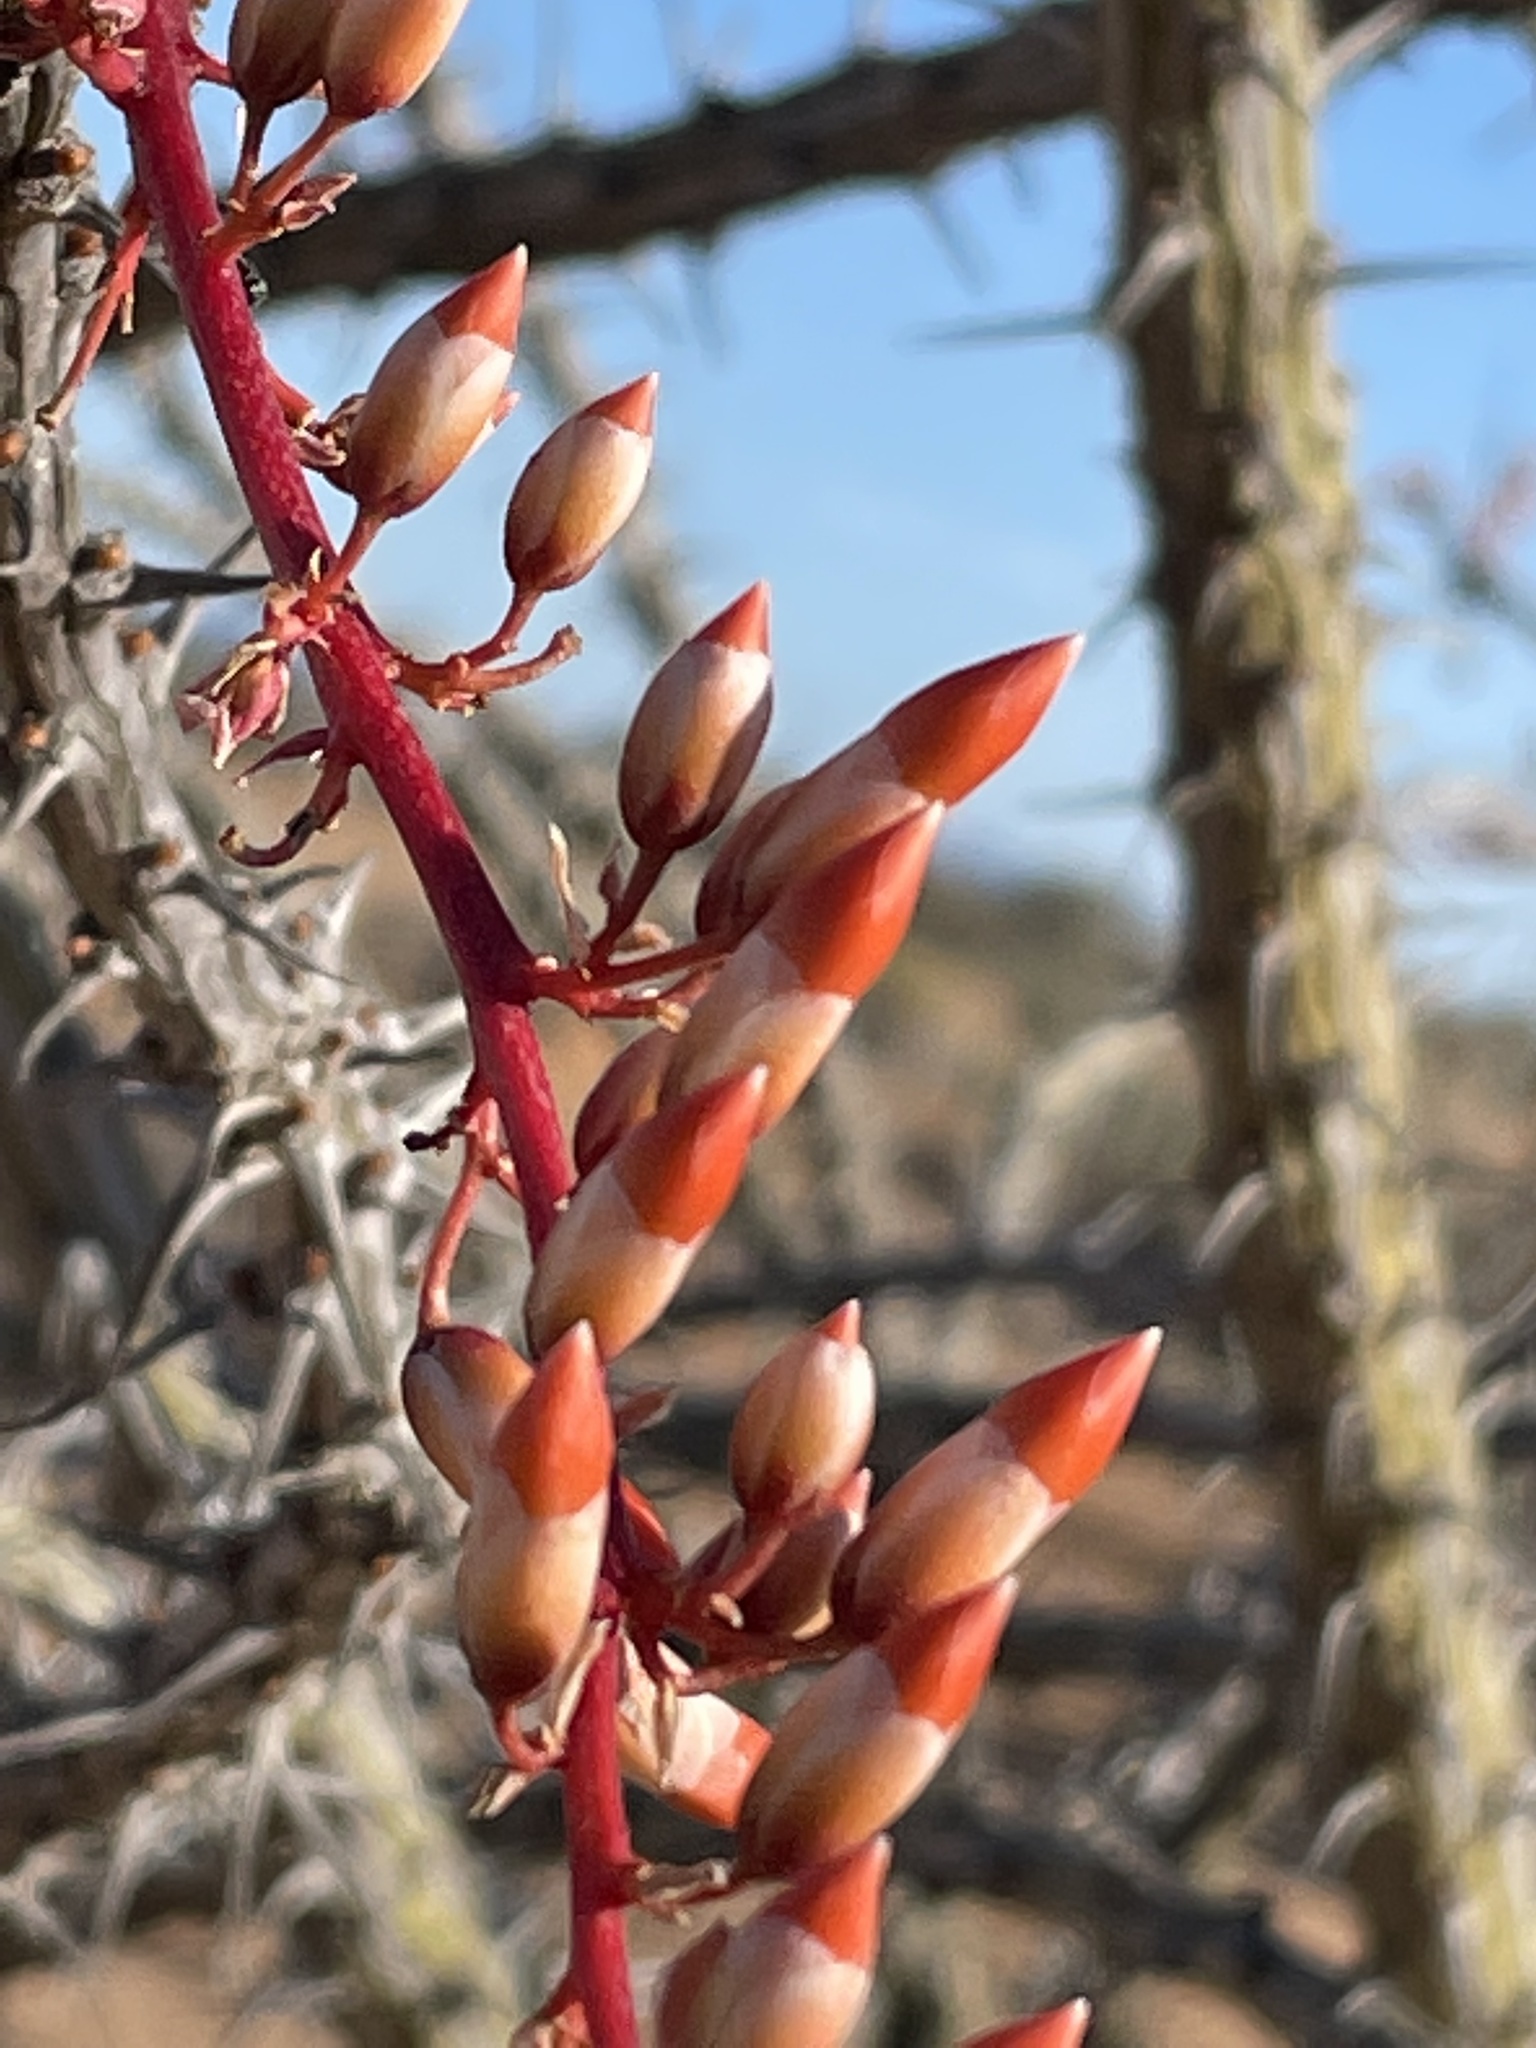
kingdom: Plantae
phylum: Tracheophyta
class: Magnoliopsida
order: Ericales
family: Fouquieriaceae
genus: Fouquieria
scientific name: Fouquieria diguetii
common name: Adam's tree
